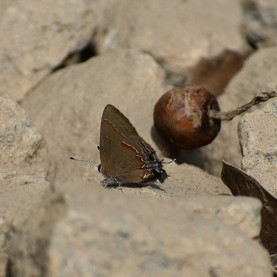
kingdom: Animalia
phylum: Arthropoda
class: Insecta
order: Lepidoptera
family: Lycaenidae
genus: Calycopis
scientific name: Calycopis cecrops
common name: Red-banded hairstreak
